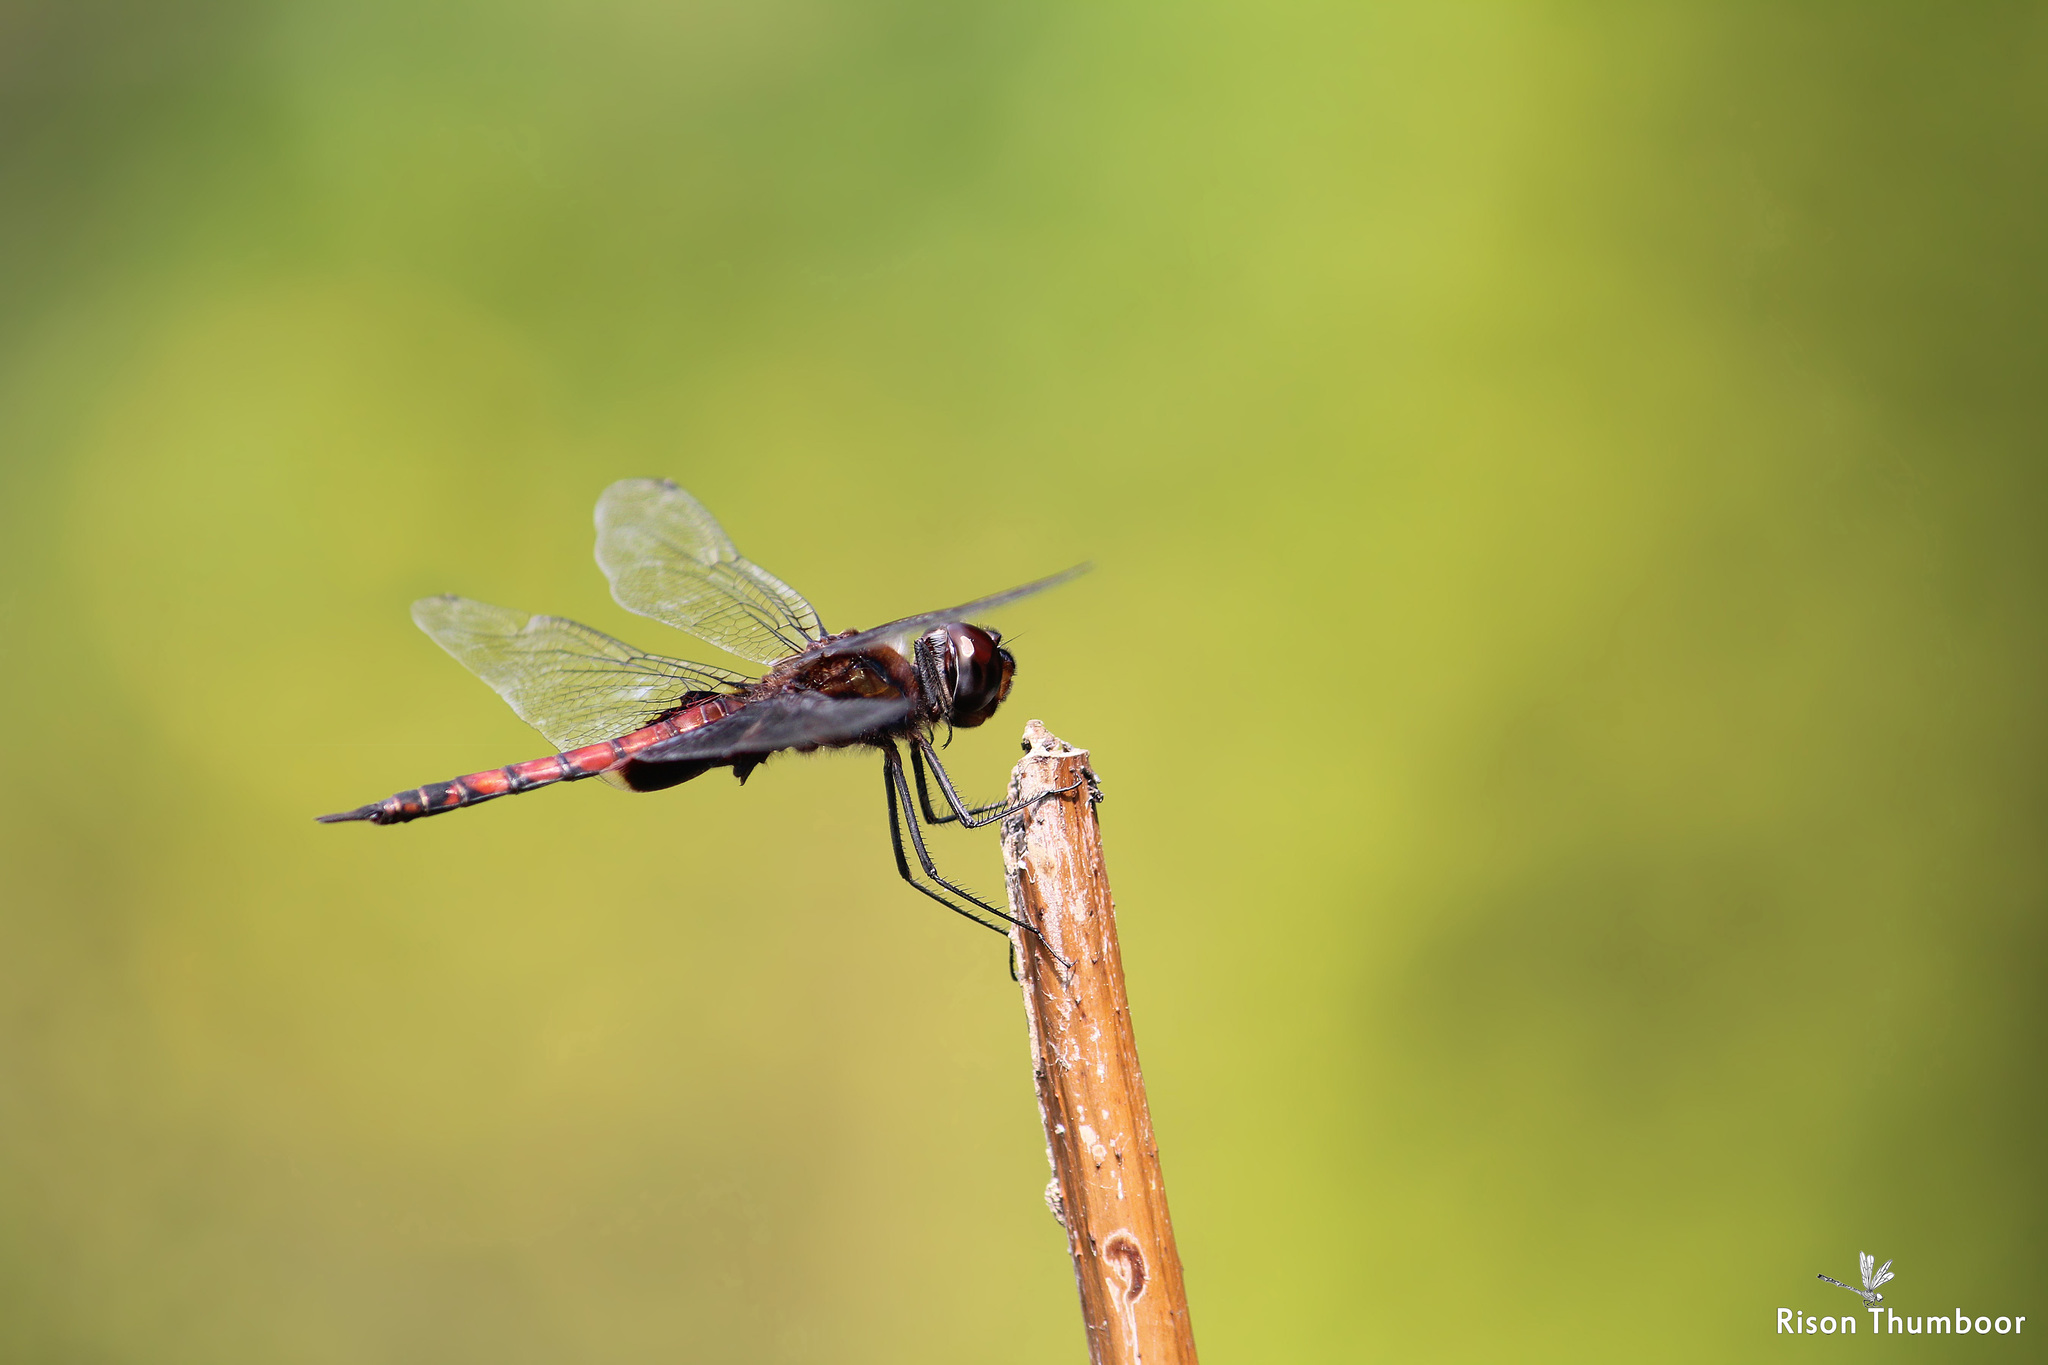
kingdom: Animalia
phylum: Arthropoda
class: Insecta
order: Odonata
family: Libellulidae
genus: Tramea
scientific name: Tramea limbata
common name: Ferruginous glider
